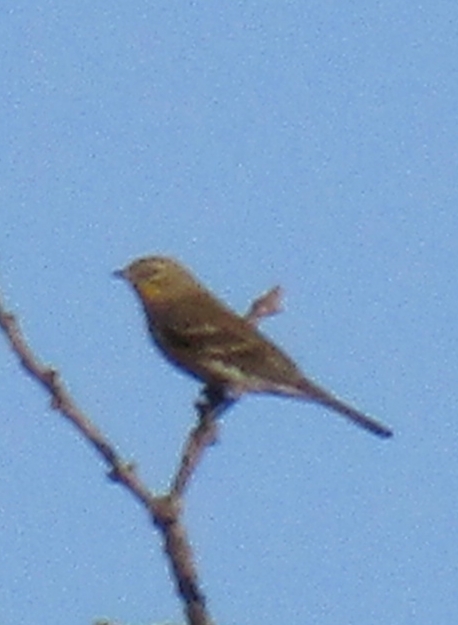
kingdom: Animalia
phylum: Chordata
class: Aves
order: Passeriformes
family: Parulidae
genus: Setophaga
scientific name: Setophaga coronata
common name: Myrtle warbler
